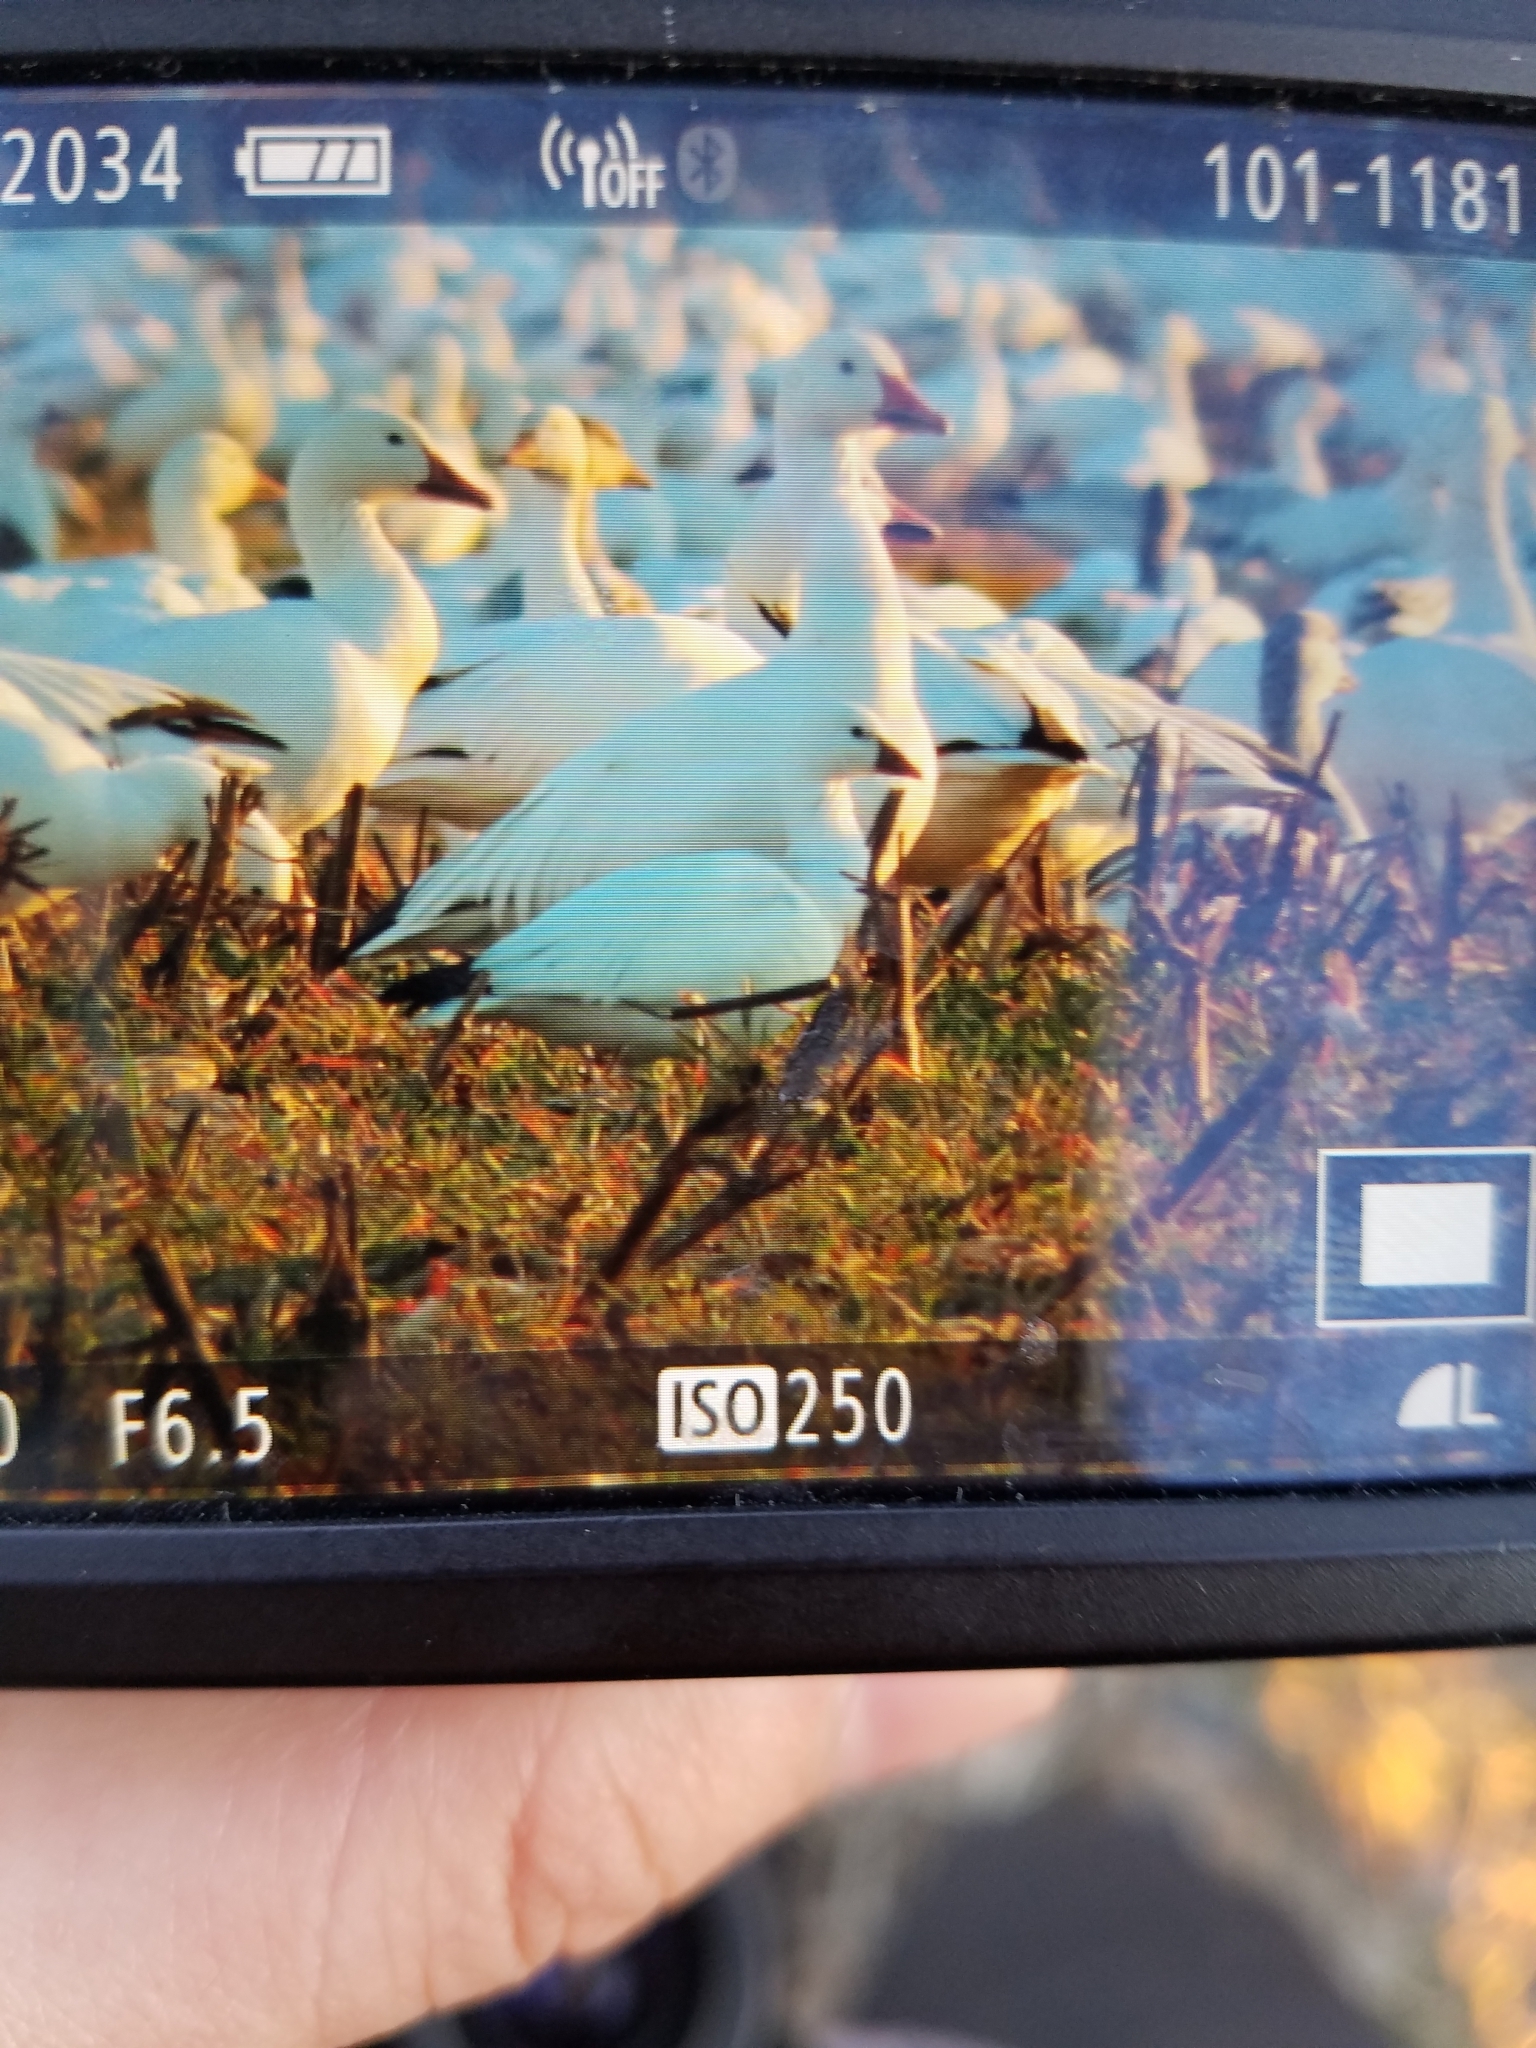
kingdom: Animalia
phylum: Chordata
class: Aves
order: Anseriformes
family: Anatidae
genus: Anser
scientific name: Anser rossii
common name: Ross's goose
